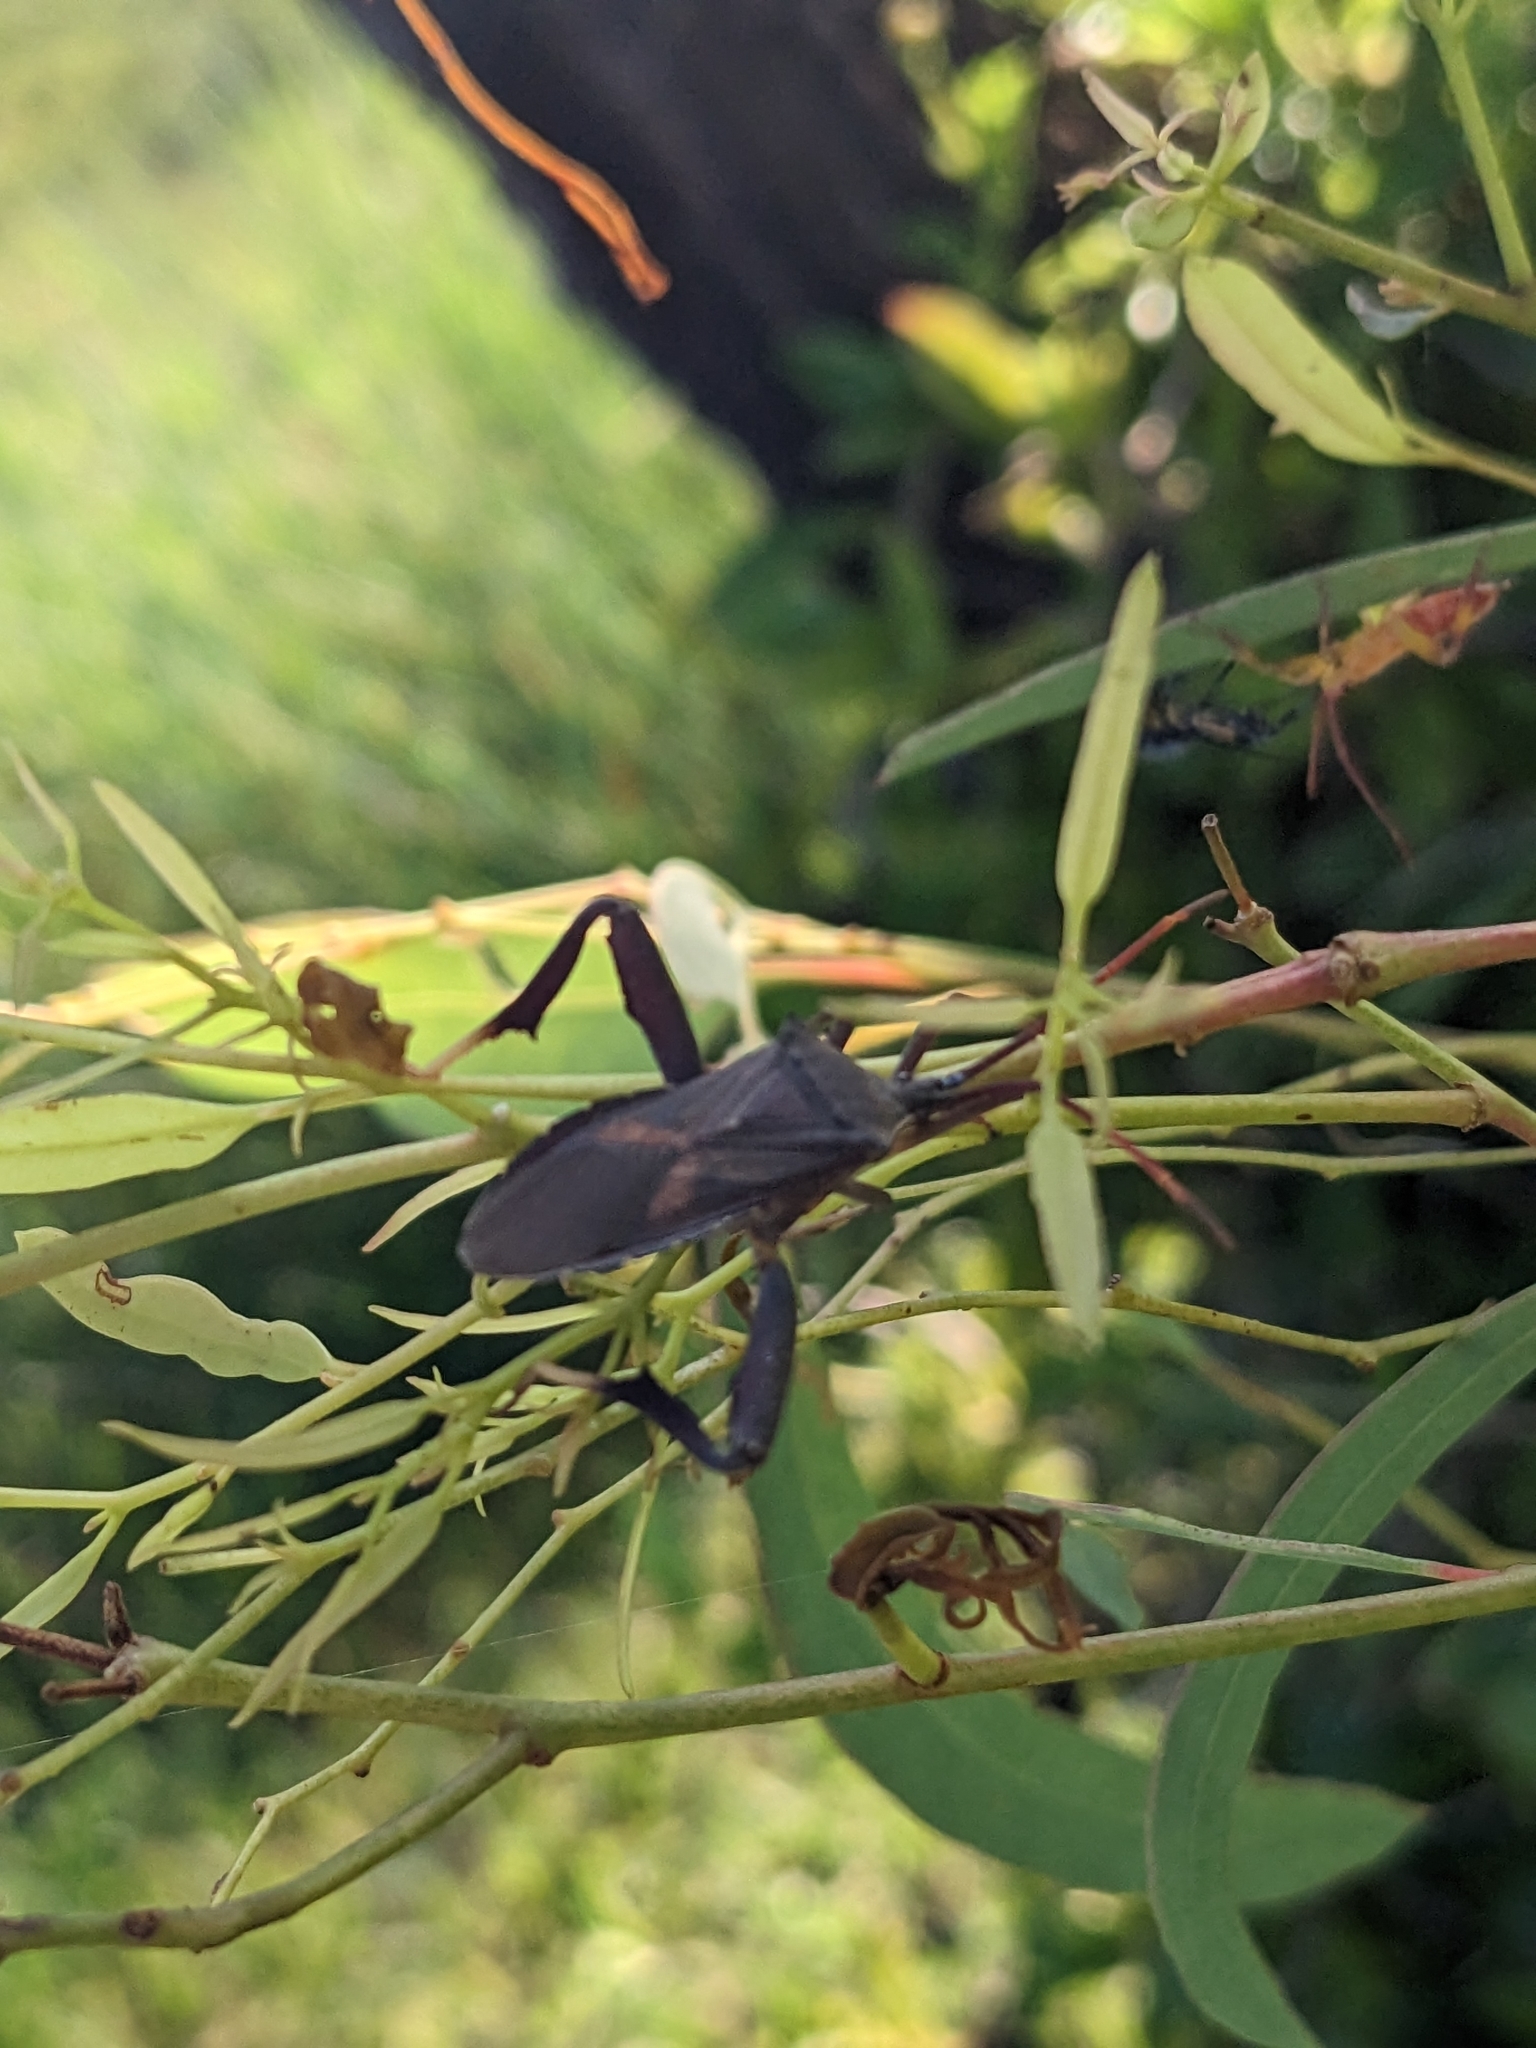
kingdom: Animalia
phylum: Arthropoda
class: Insecta
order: Hemiptera
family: Coreidae
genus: Amorbus
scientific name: Amorbus robustus
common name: Common gum-tree bug
